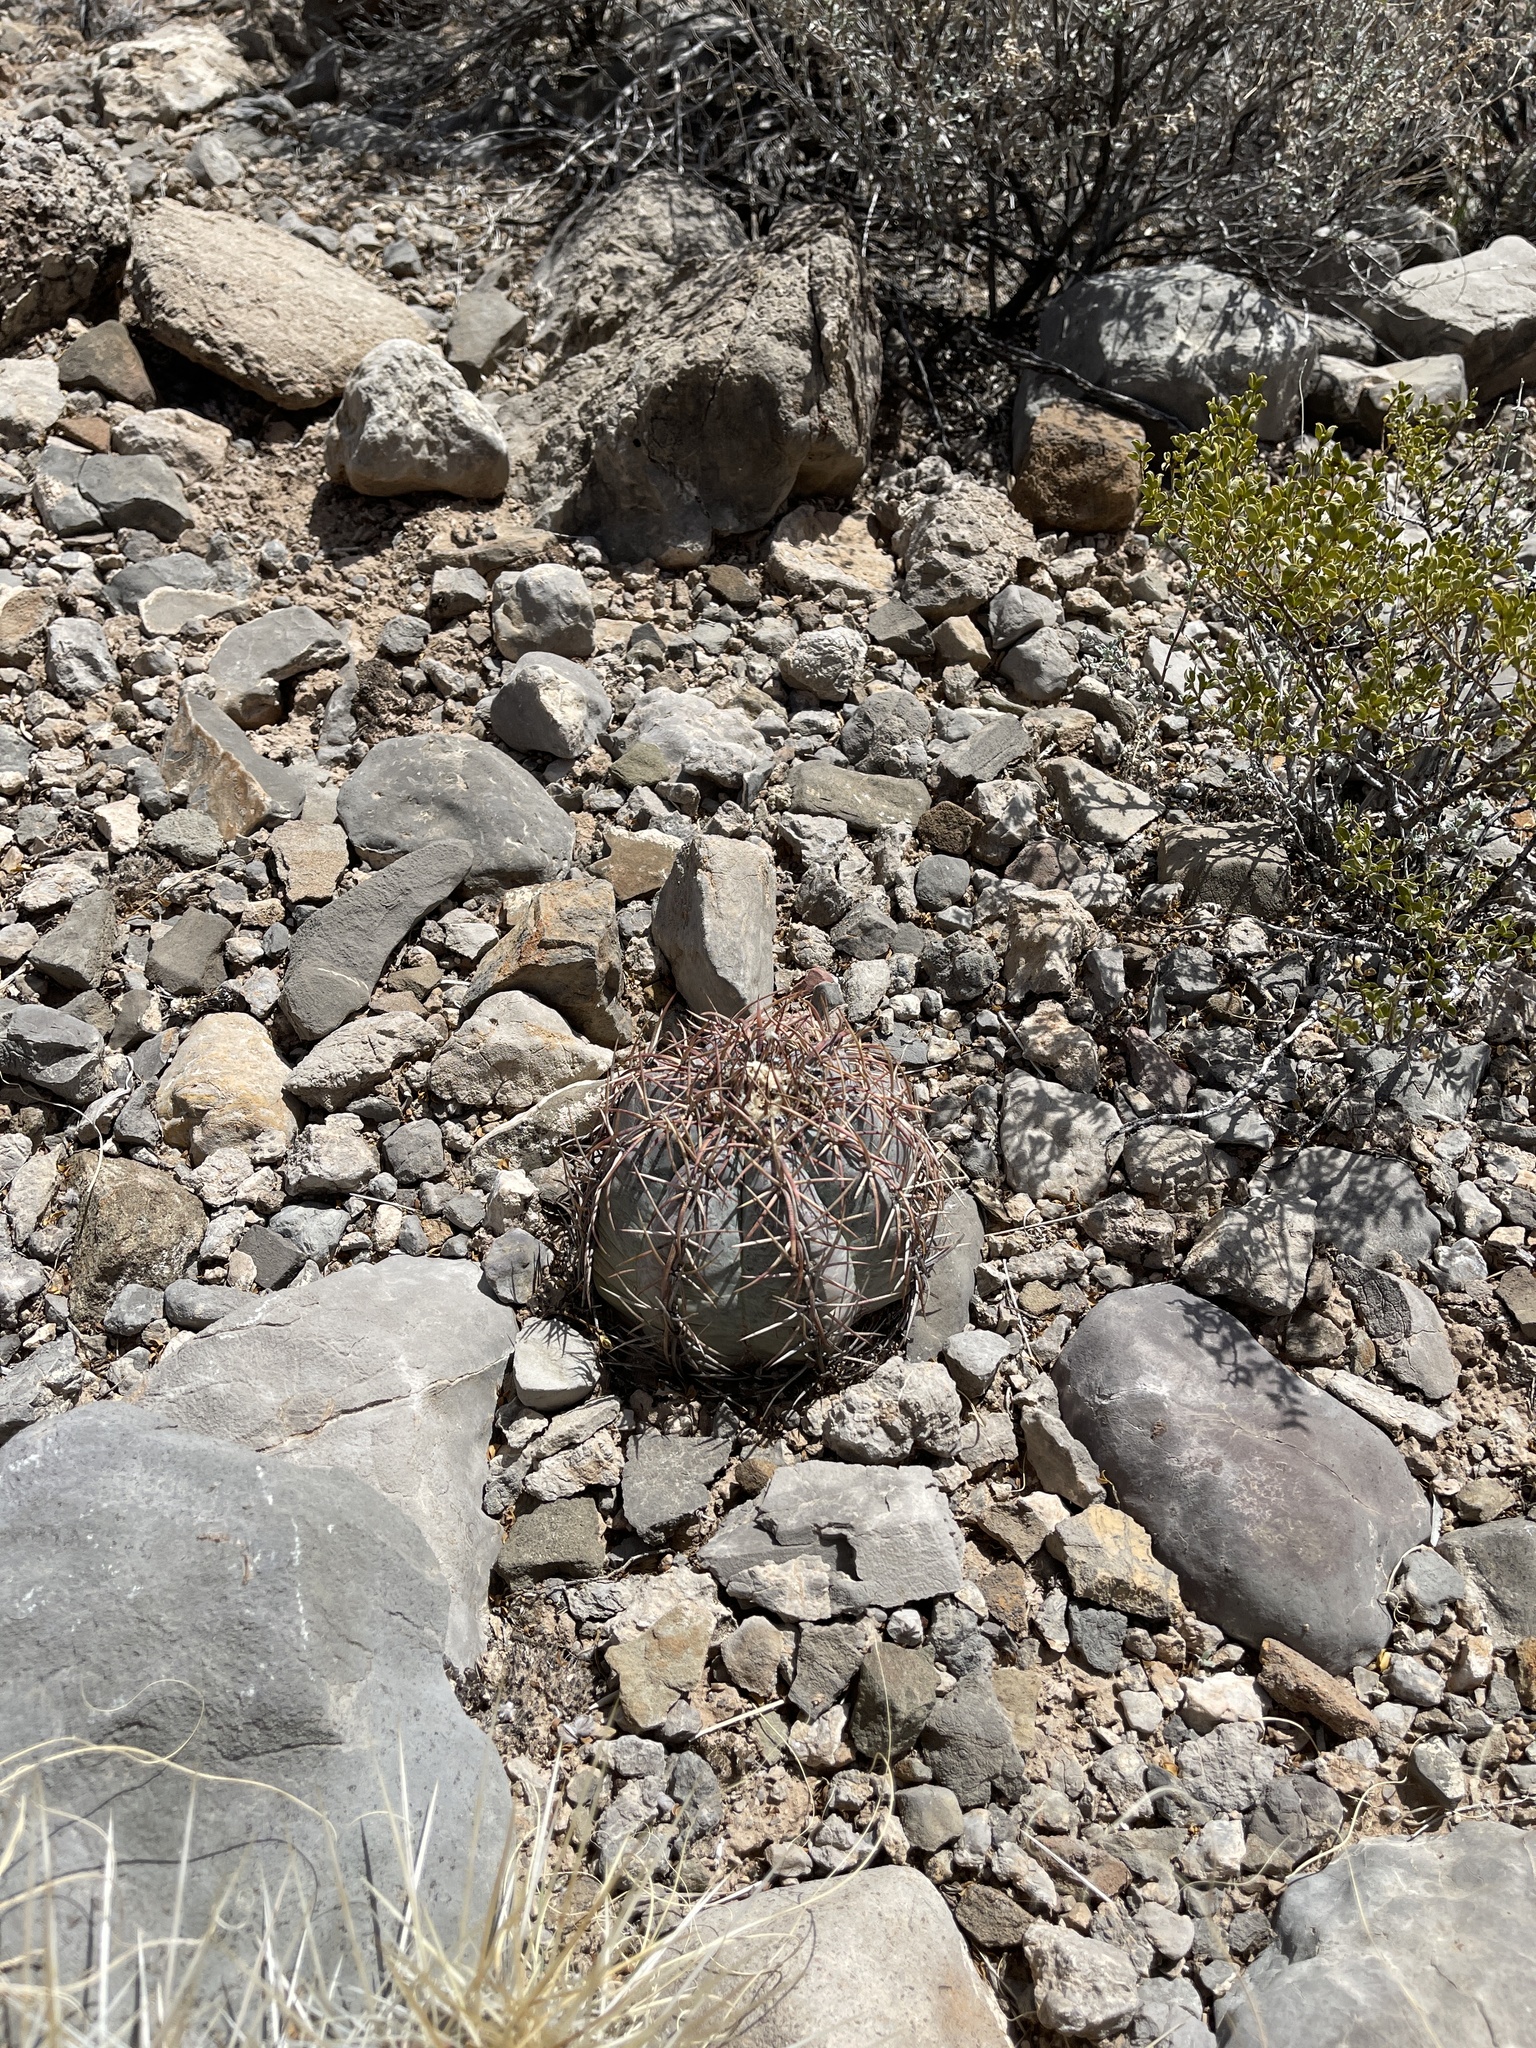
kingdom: Plantae
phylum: Tracheophyta
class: Magnoliopsida
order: Caryophyllales
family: Cactaceae
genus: Echinocactus
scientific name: Echinocactus horizonthalonius
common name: Devilshead
